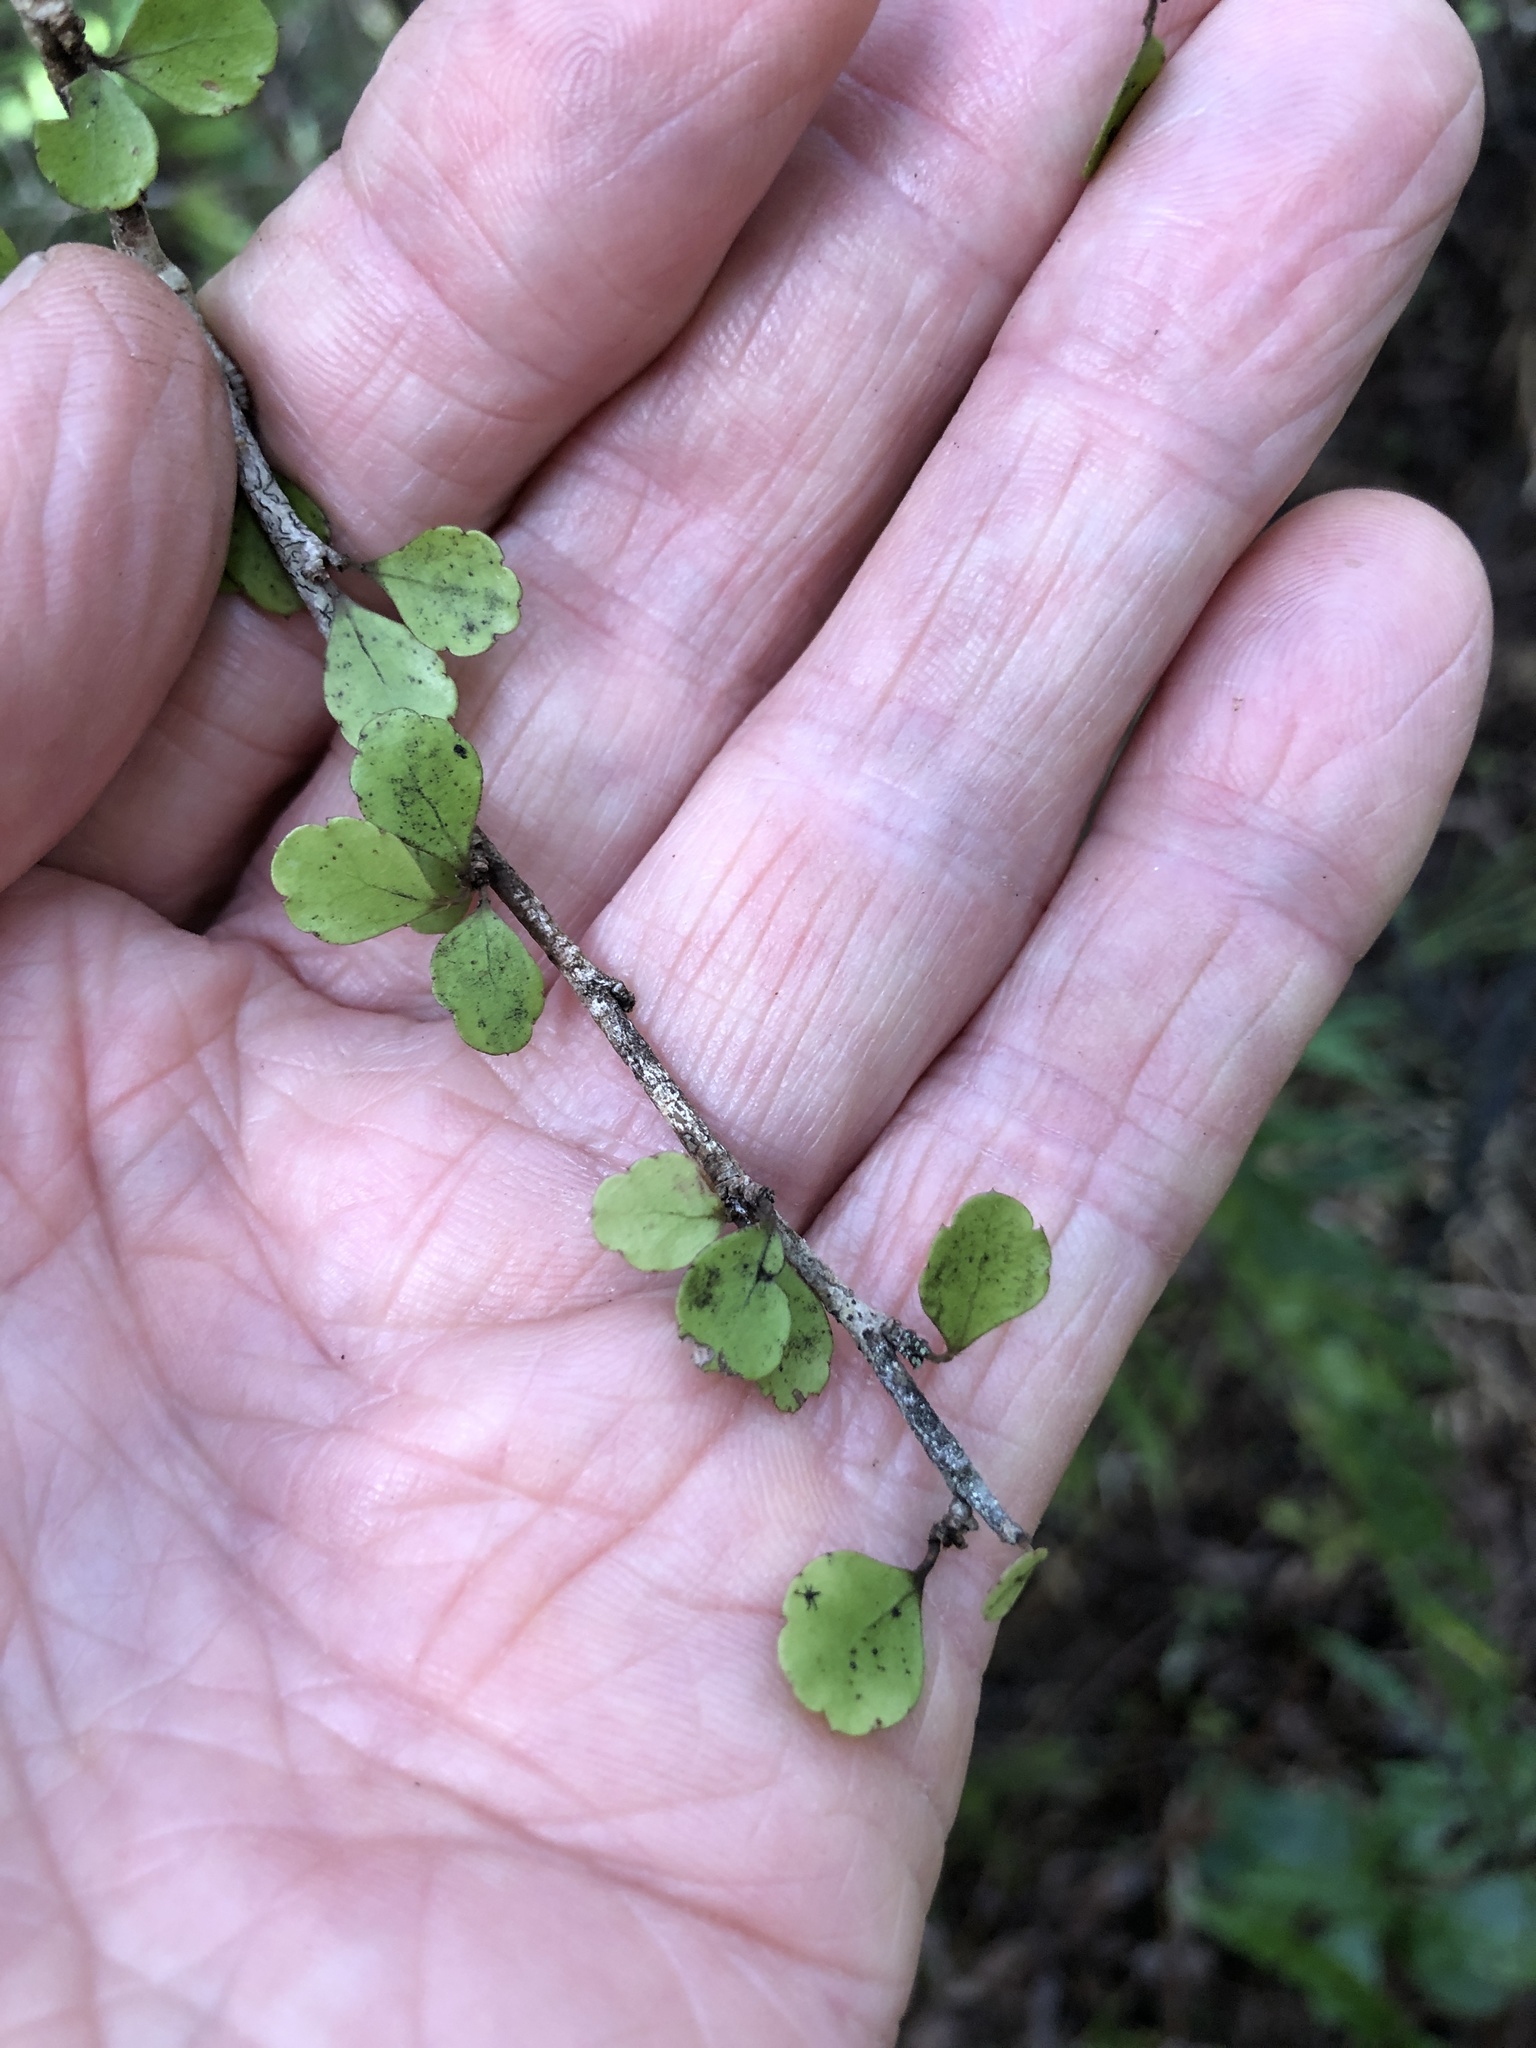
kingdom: Plantae
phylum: Tracheophyta
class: Magnoliopsida
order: Apiales
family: Araliaceae
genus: Raukaua
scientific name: Raukaua anomalus
